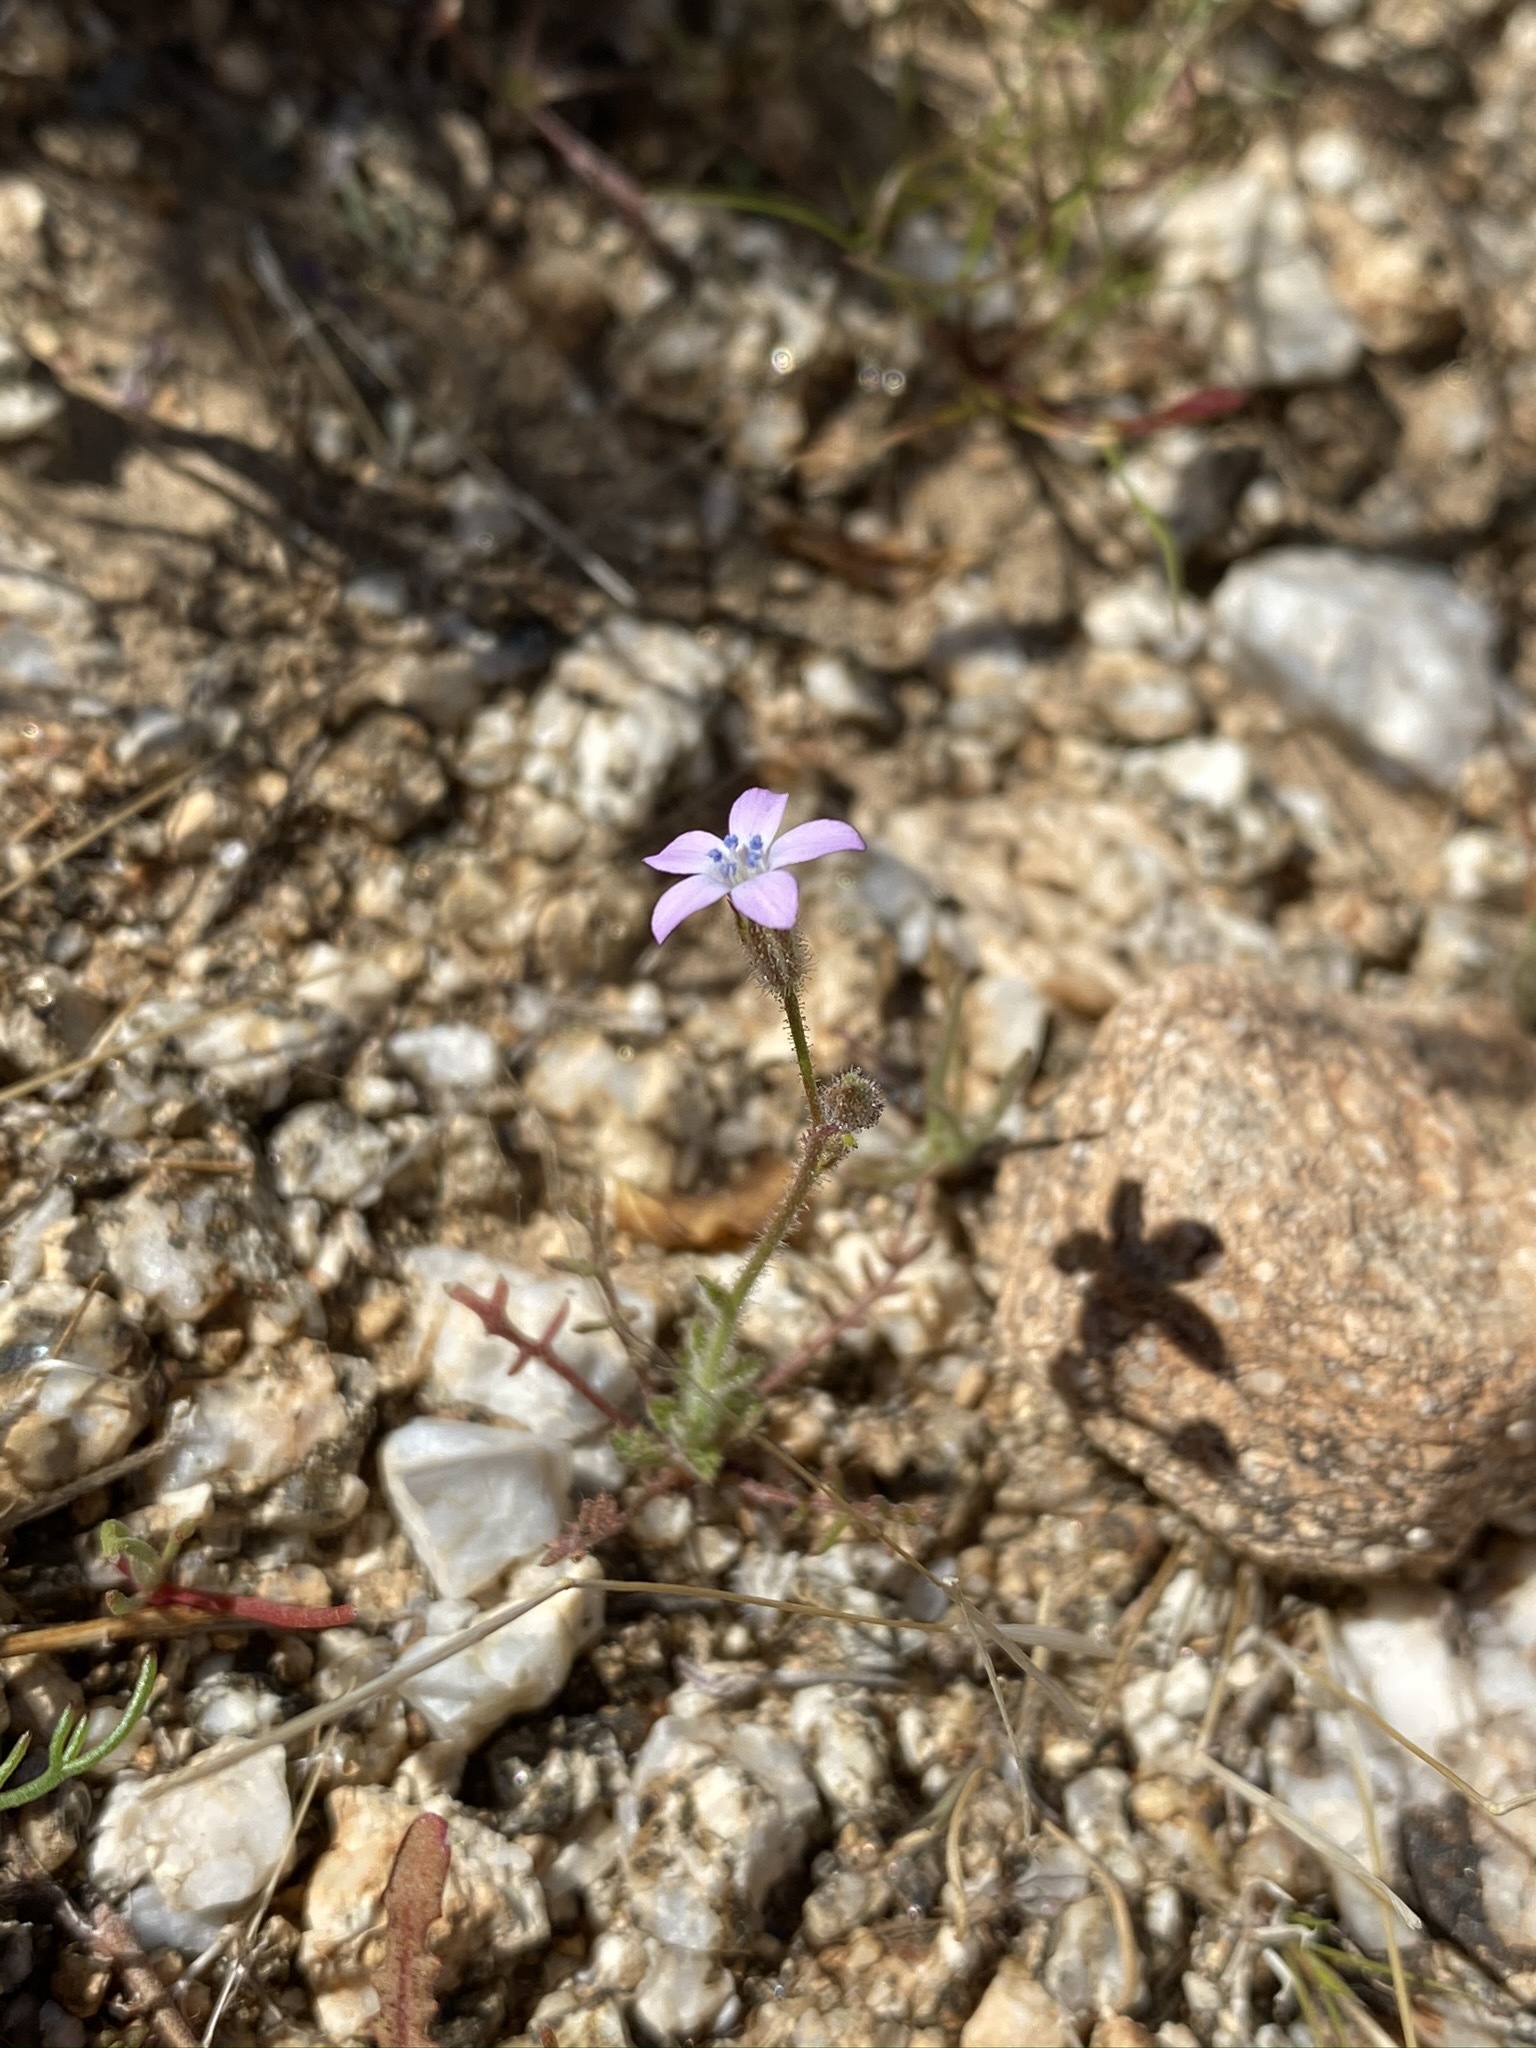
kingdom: Plantae
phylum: Tracheophyta
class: Magnoliopsida
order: Ericales
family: Polemoniaceae
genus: Gilia
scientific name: Gilia stellata
